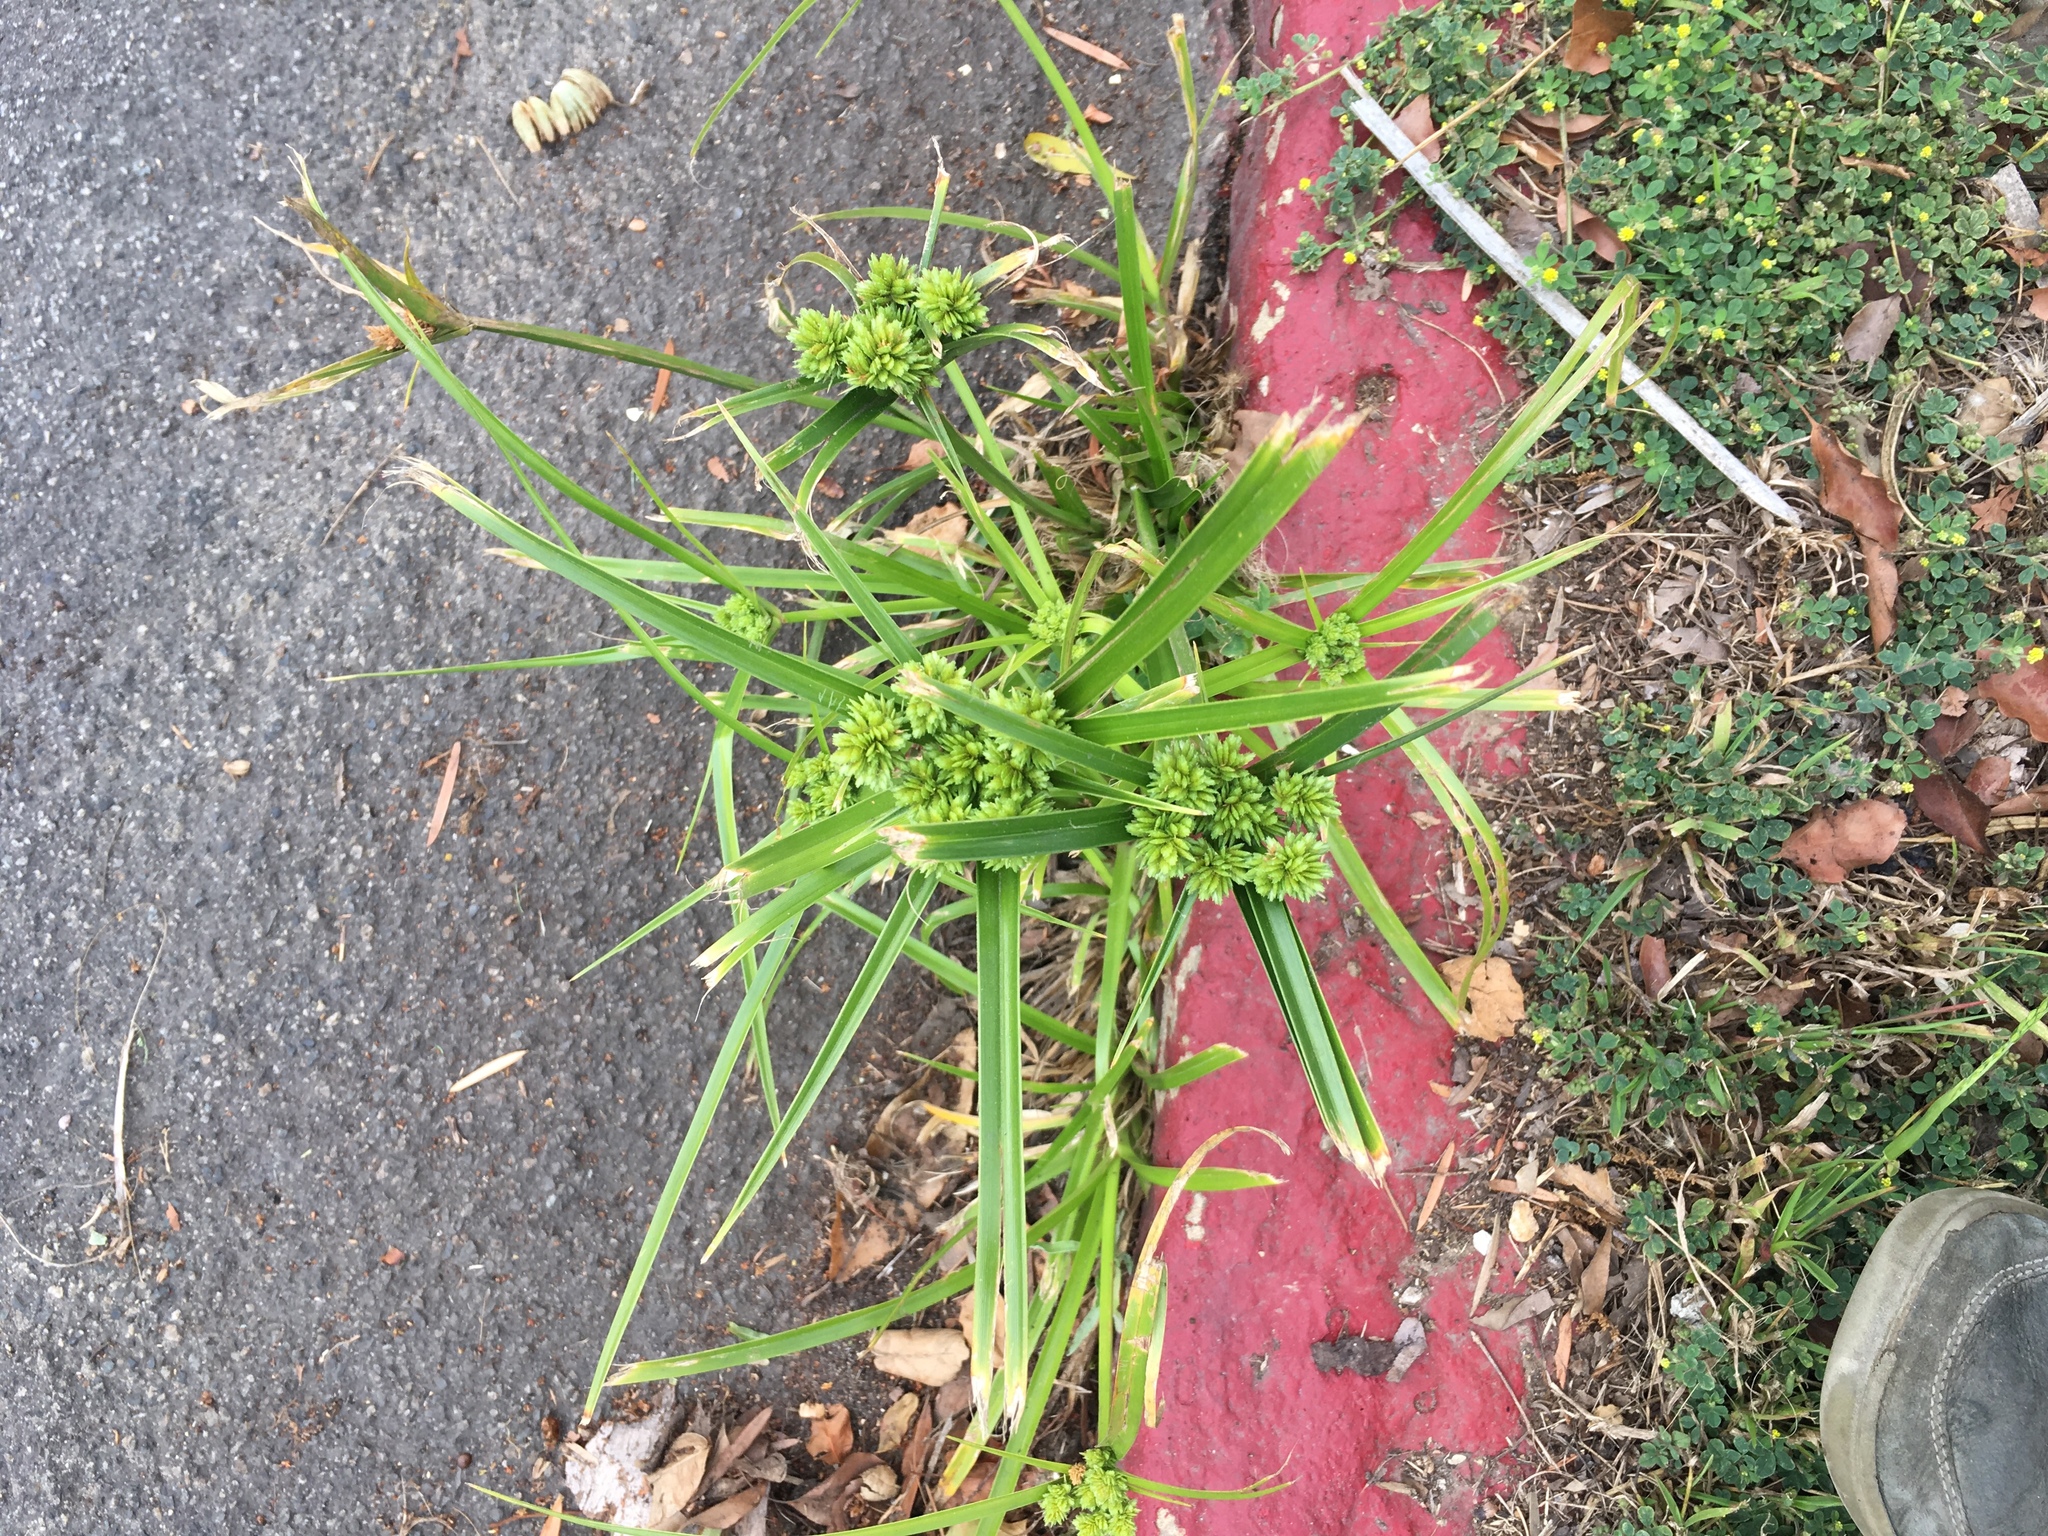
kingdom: Plantae
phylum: Tracheophyta
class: Liliopsida
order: Poales
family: Cyperaceae
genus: Cyperus
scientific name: Cyperus eragrostis
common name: Tall flatsedge
